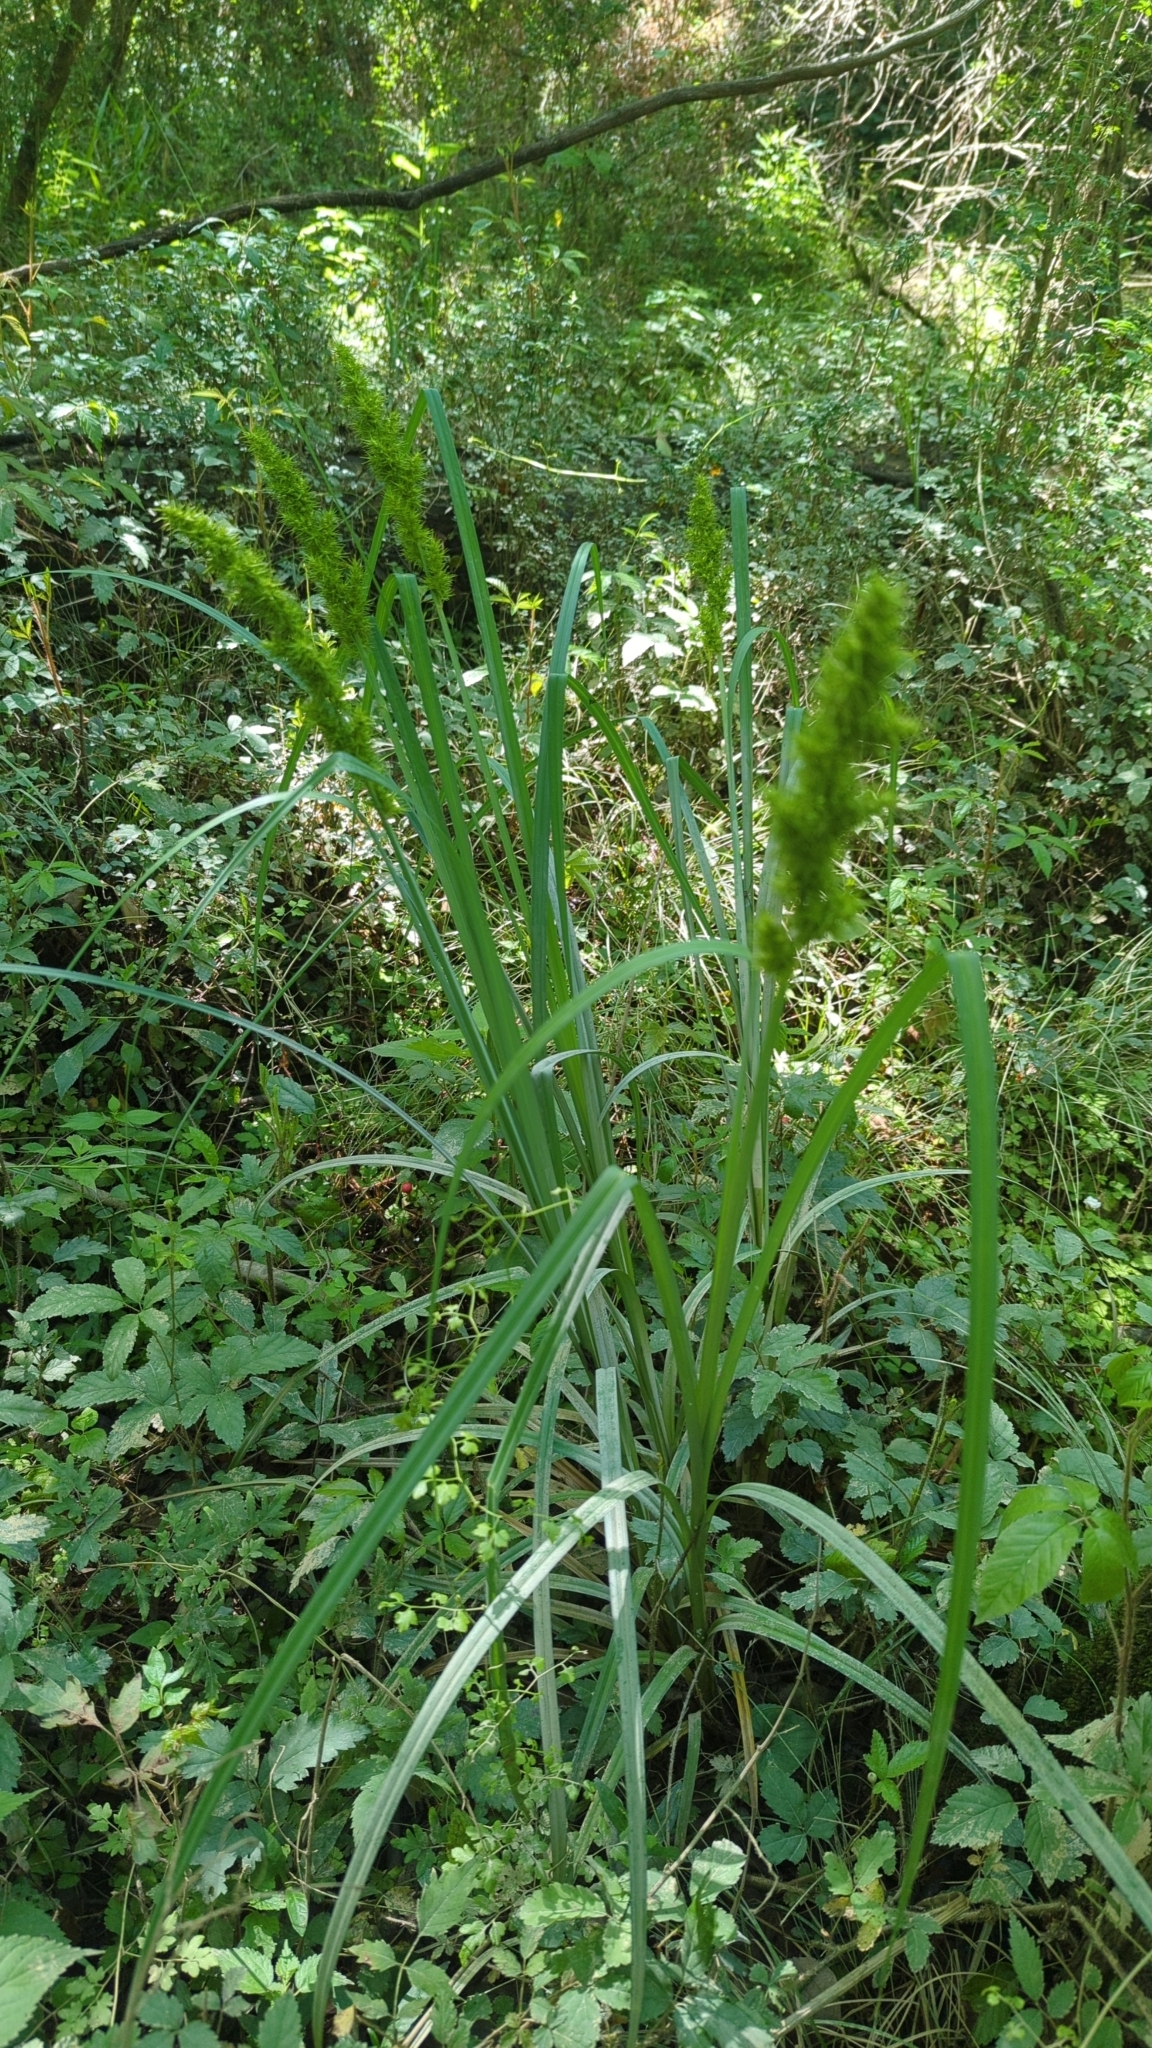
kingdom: Plantae
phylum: Tracheophyta
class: Liliopsida
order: Poales
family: Cyperaceae
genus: Carex
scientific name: Carex crus-corvi
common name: Crow-spur sedge
